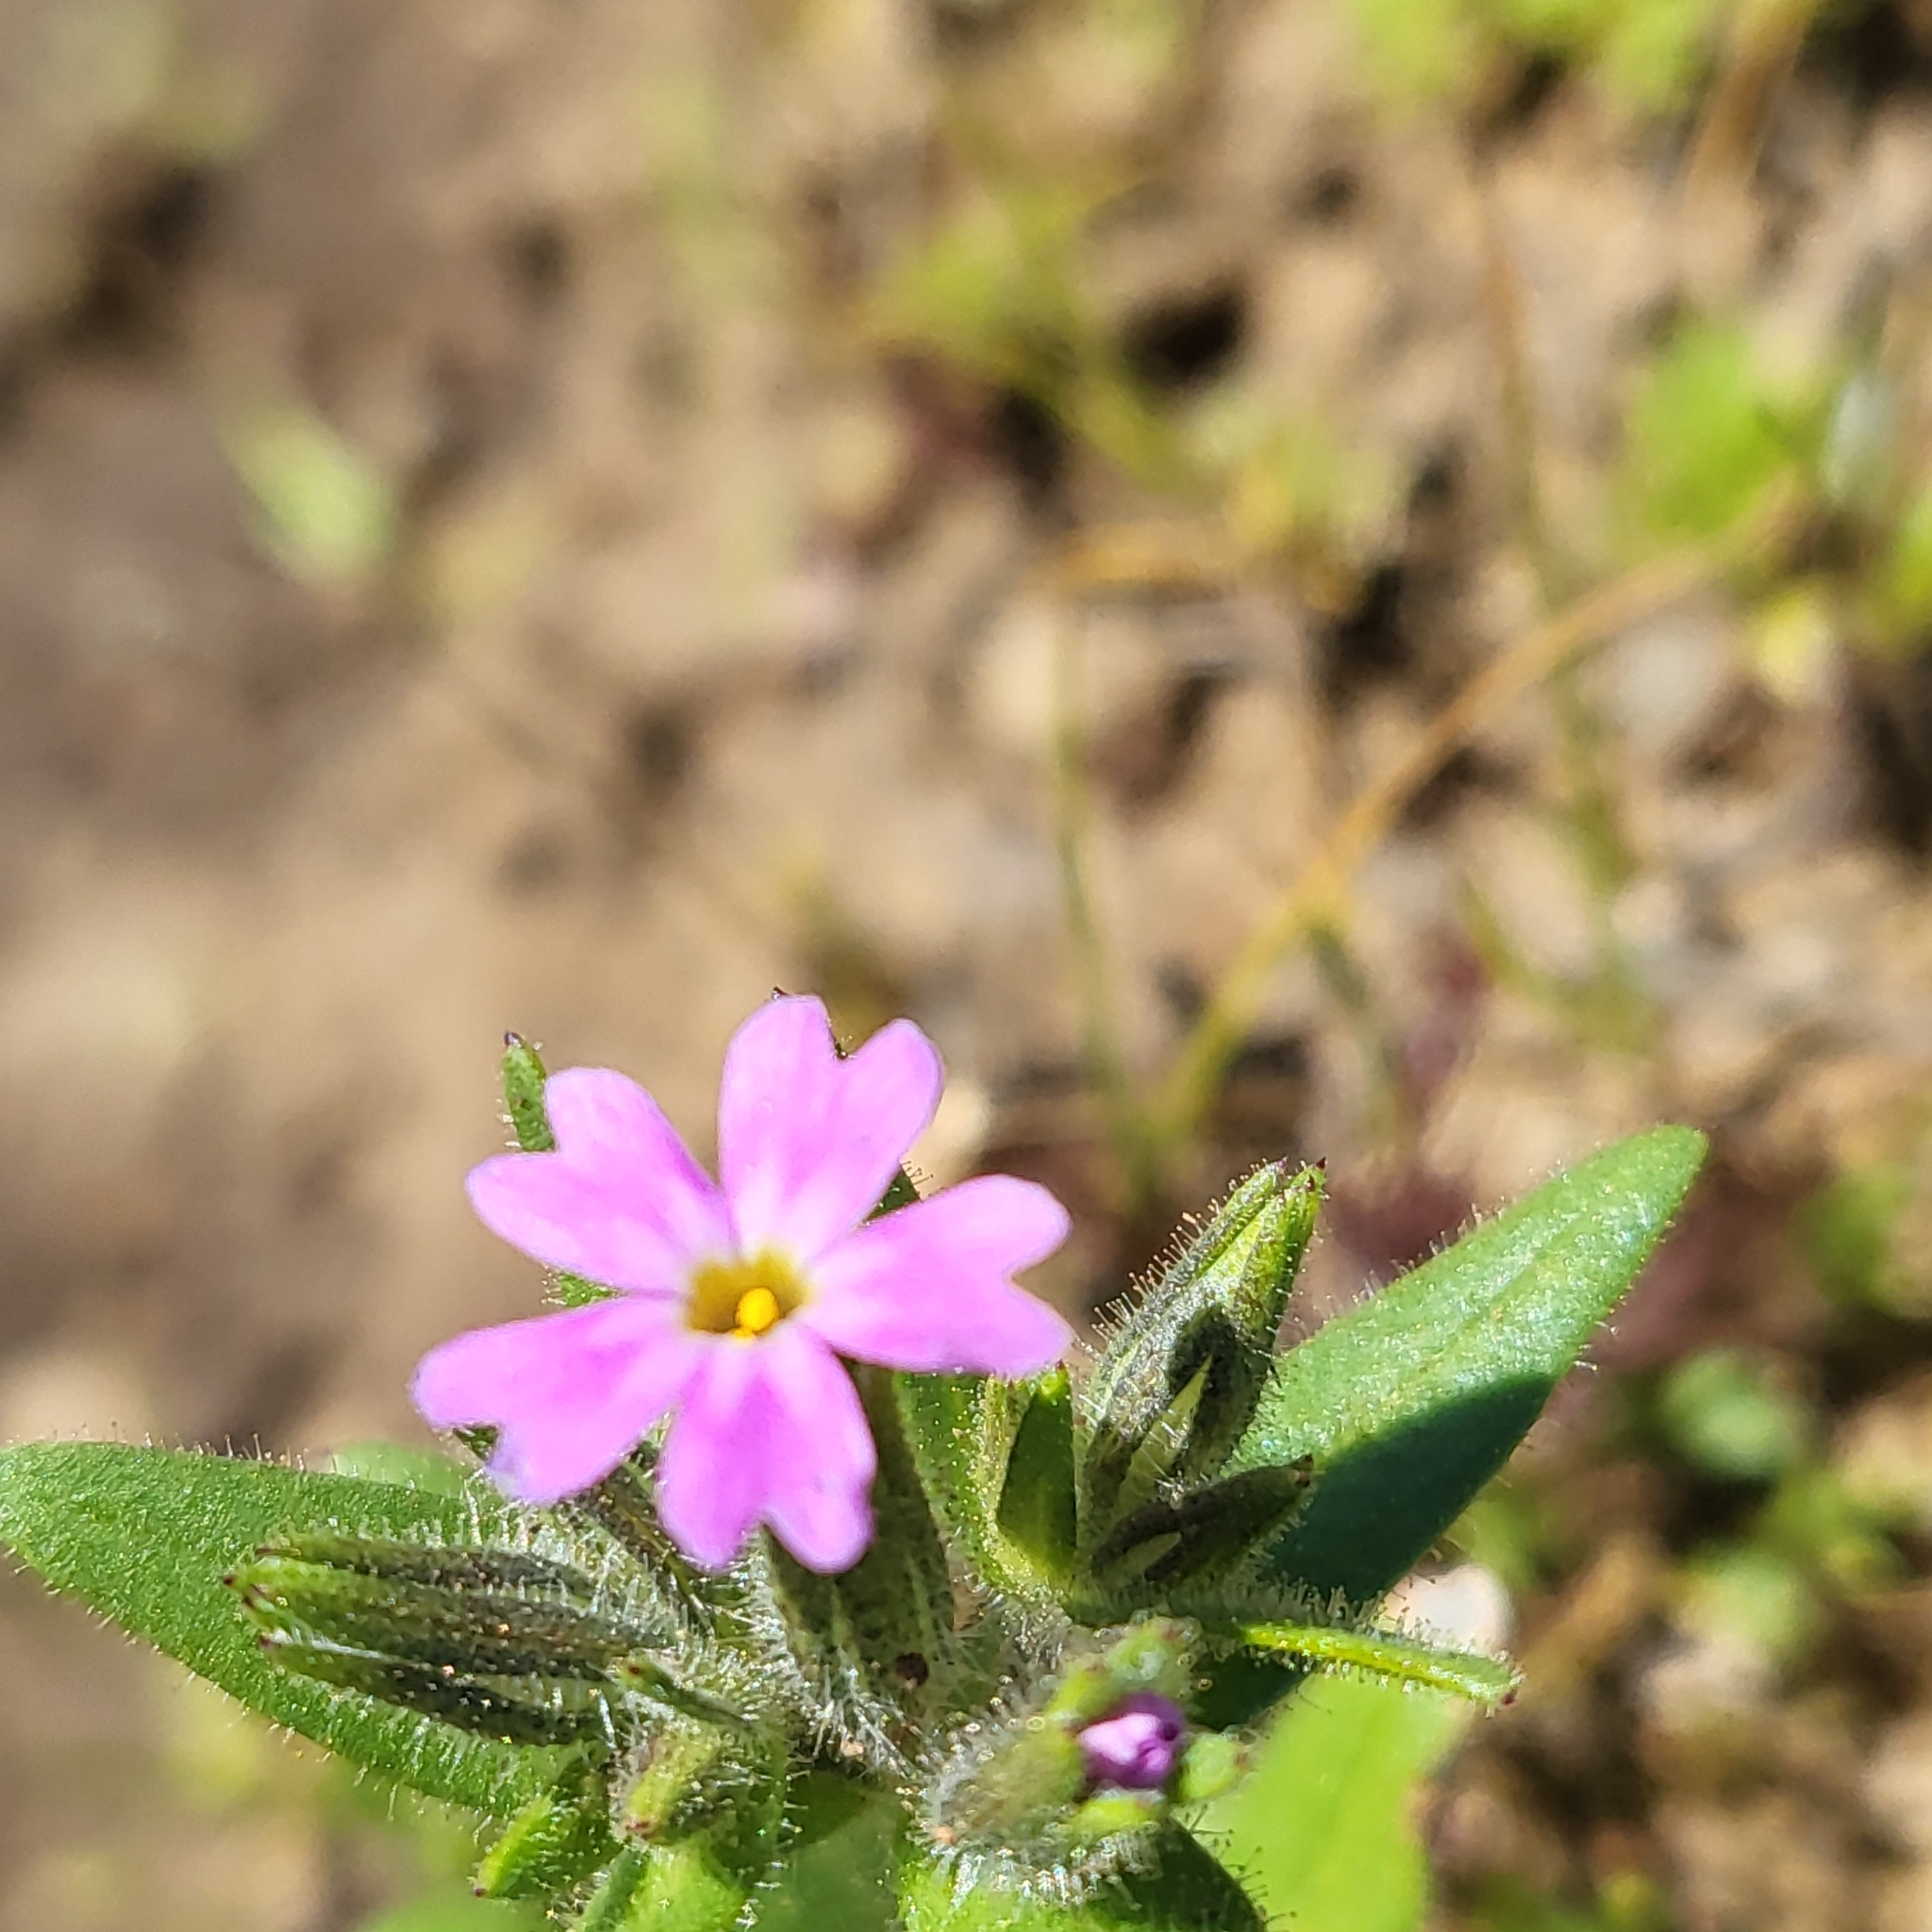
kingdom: Plantae
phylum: Tracheophyta
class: Magnoliopsida
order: Ericales
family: Polemoniaceae
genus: Phlox
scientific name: Phlox gracilis
